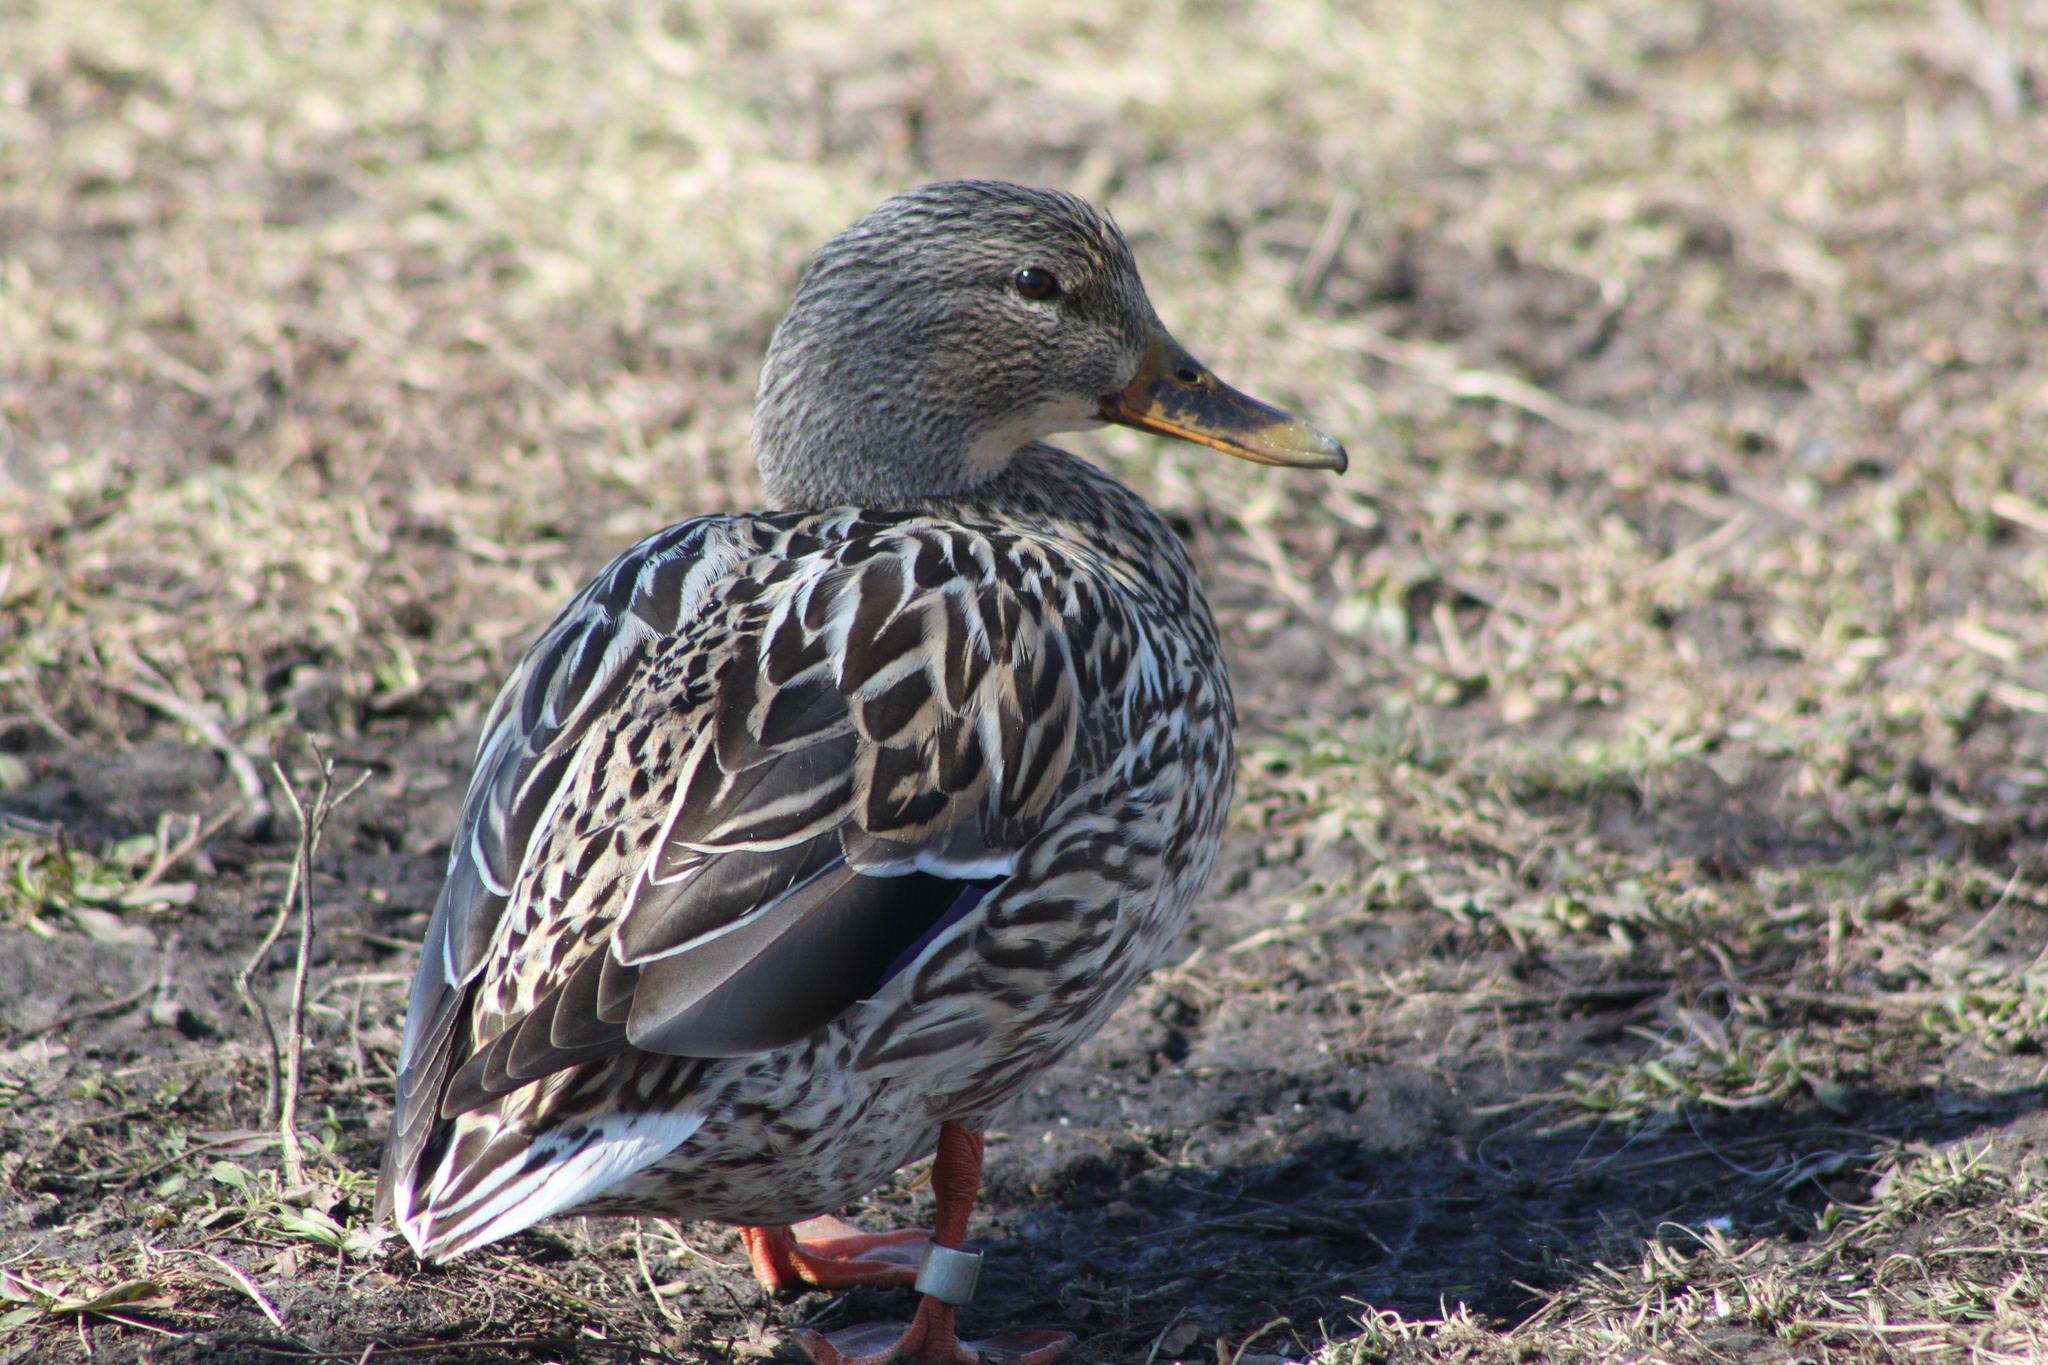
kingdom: Animalia
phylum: Chordata
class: Aves
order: Anseriformes
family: Anatidae
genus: Anas
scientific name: Anas platyrhynchos
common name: Mallard
